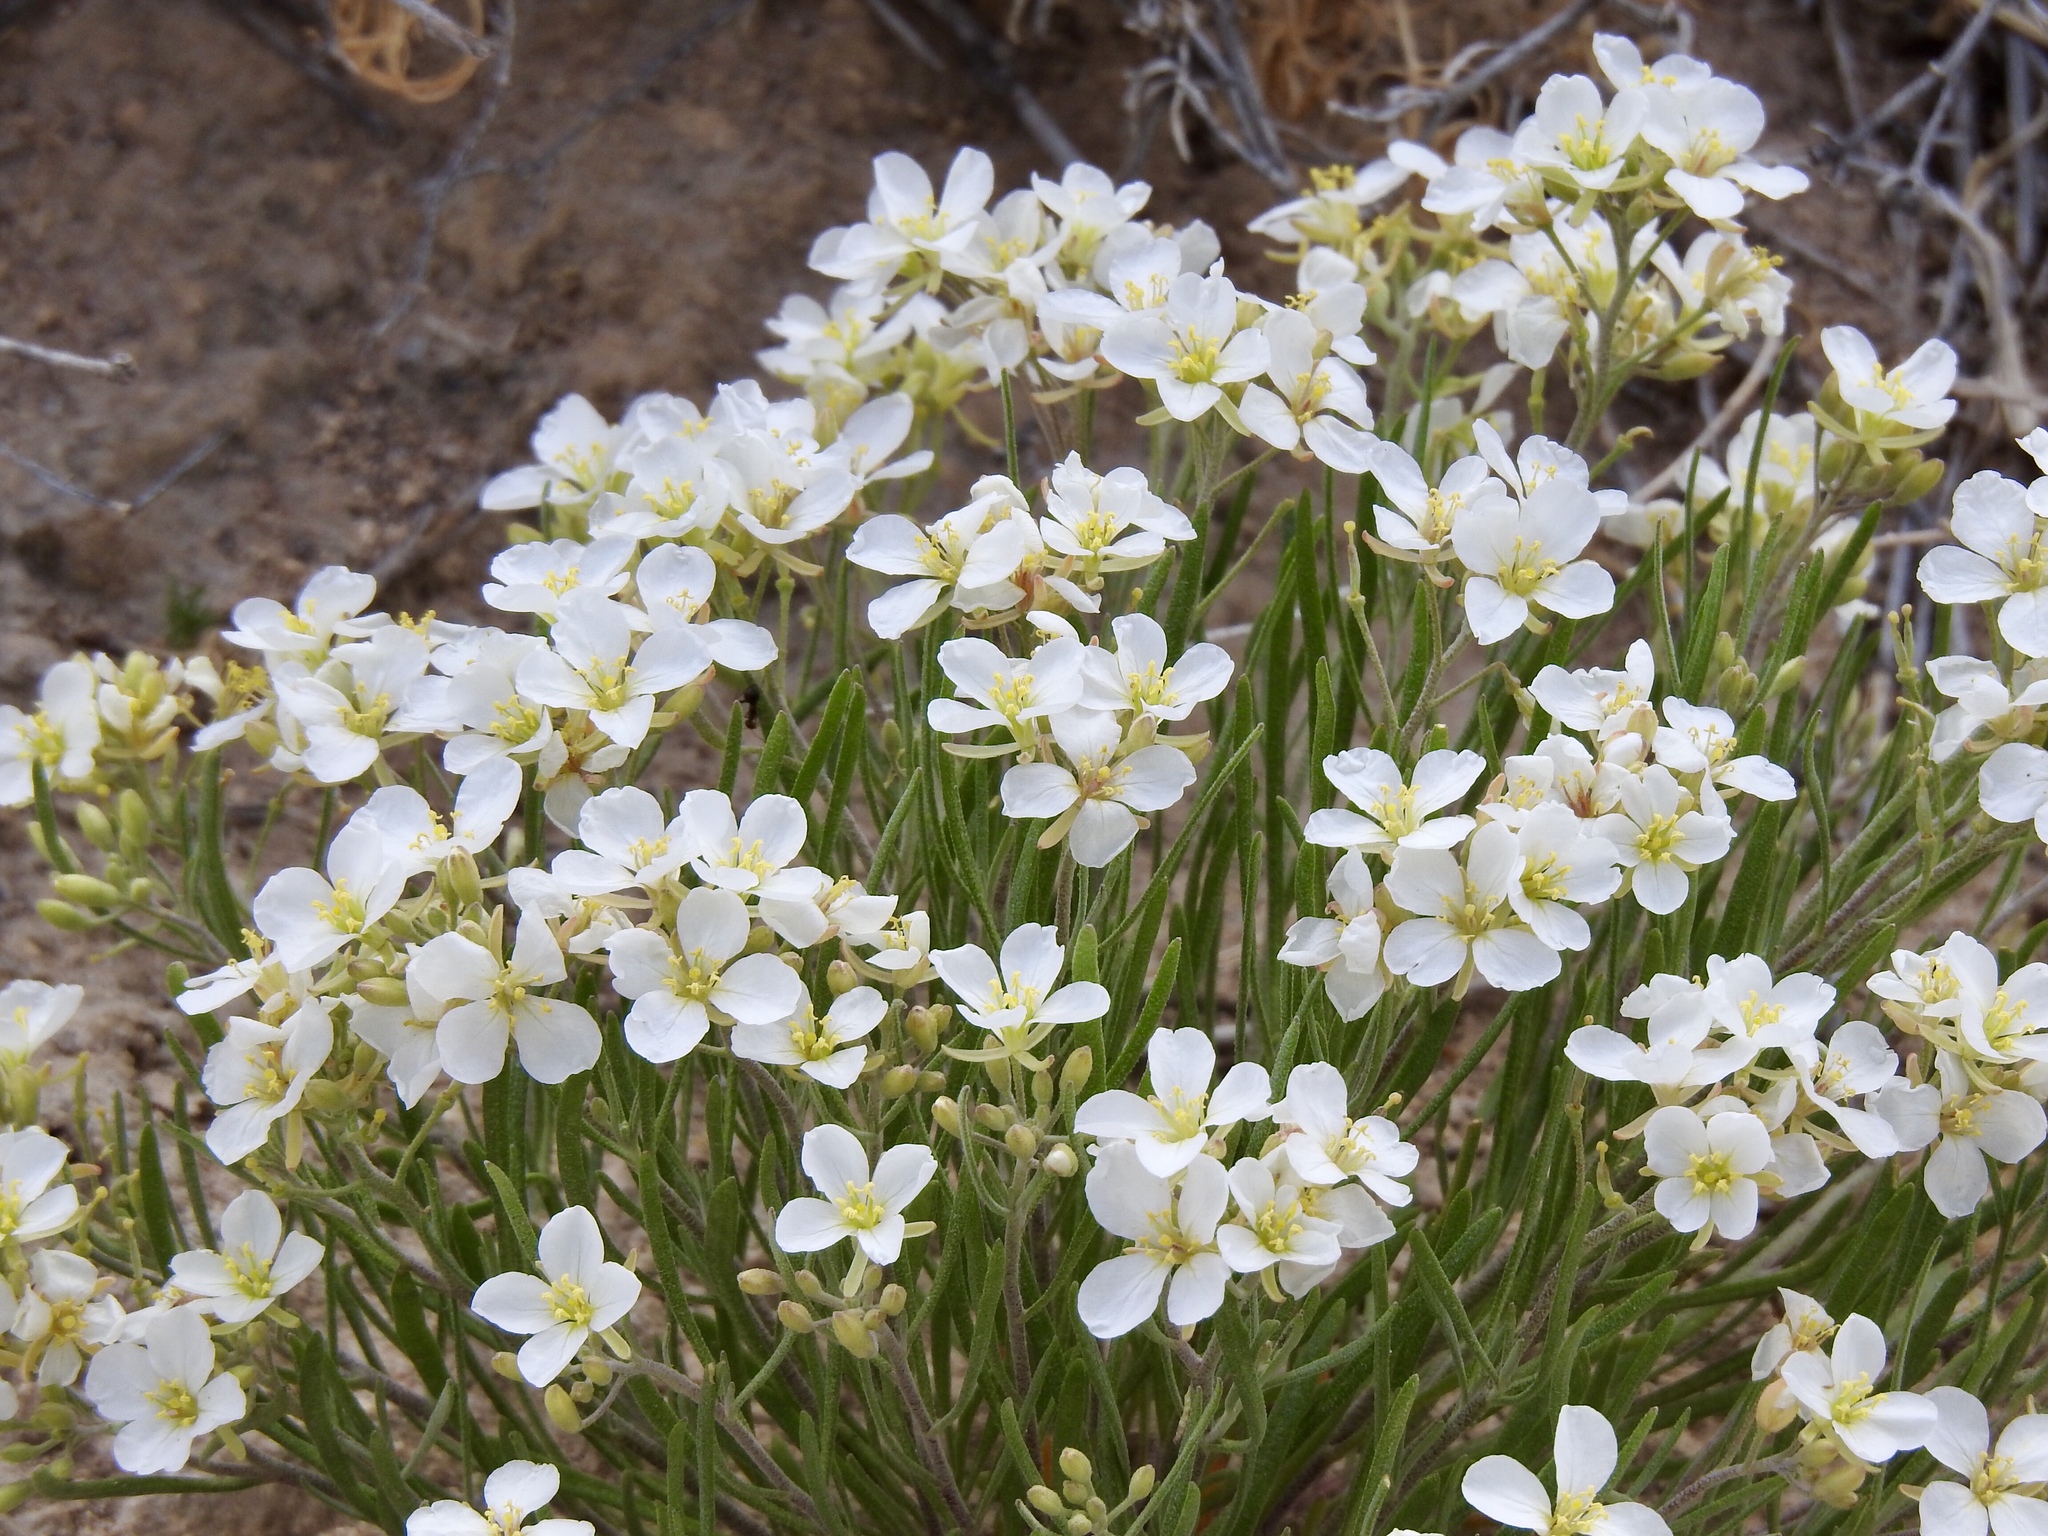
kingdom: Plantae
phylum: Tracheophyta
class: Magnoliopsida
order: Brassicales
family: Brassicaceae
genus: Nerisyrenia
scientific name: Nerisyrenia linearifolia
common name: White sands fan mustard
